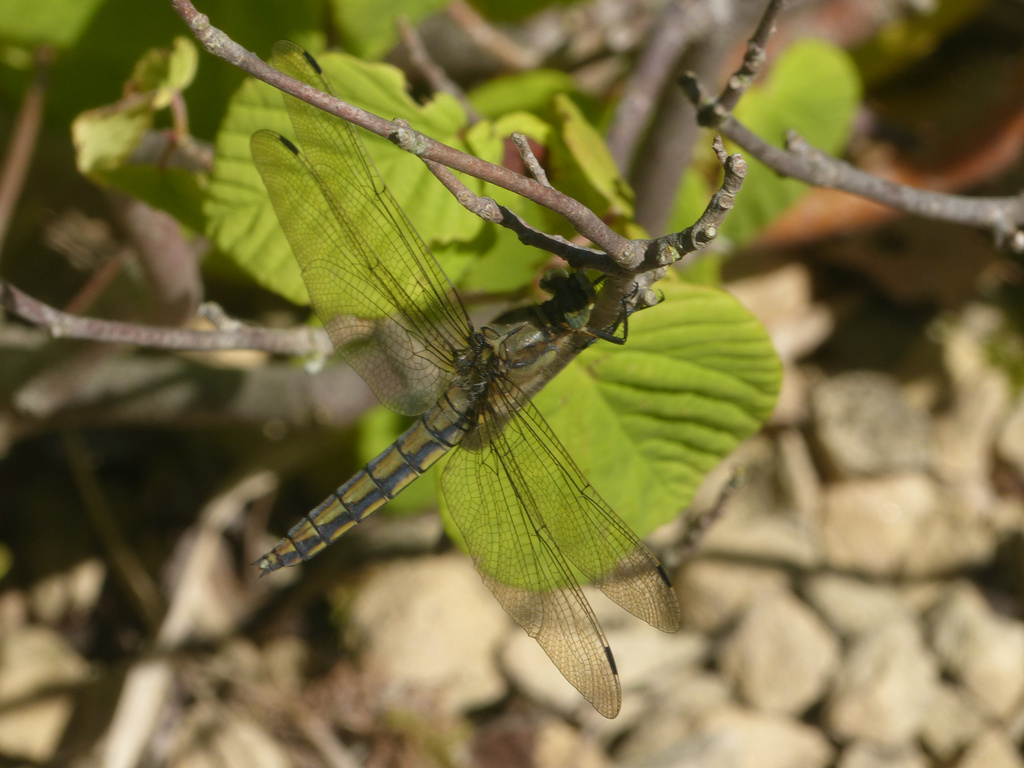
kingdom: Animalia
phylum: Arthropoda
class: Insecta
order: Odonata
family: Libellulidae
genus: Orthetrum
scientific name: Orthetrum cancellatum
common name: Black-tailed skimmer
